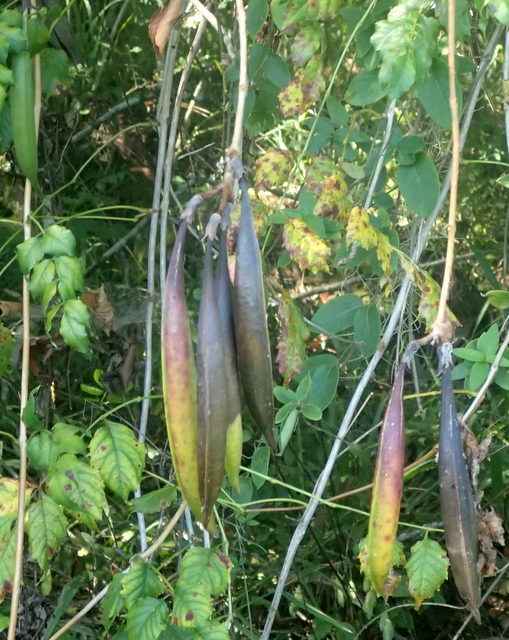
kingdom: Plantae
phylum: Tracheophyta
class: Magnoliopsida
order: Lamiales
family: Bignoniaceae
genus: Campsis
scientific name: Campsis radicans
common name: Trumpet-creeper
